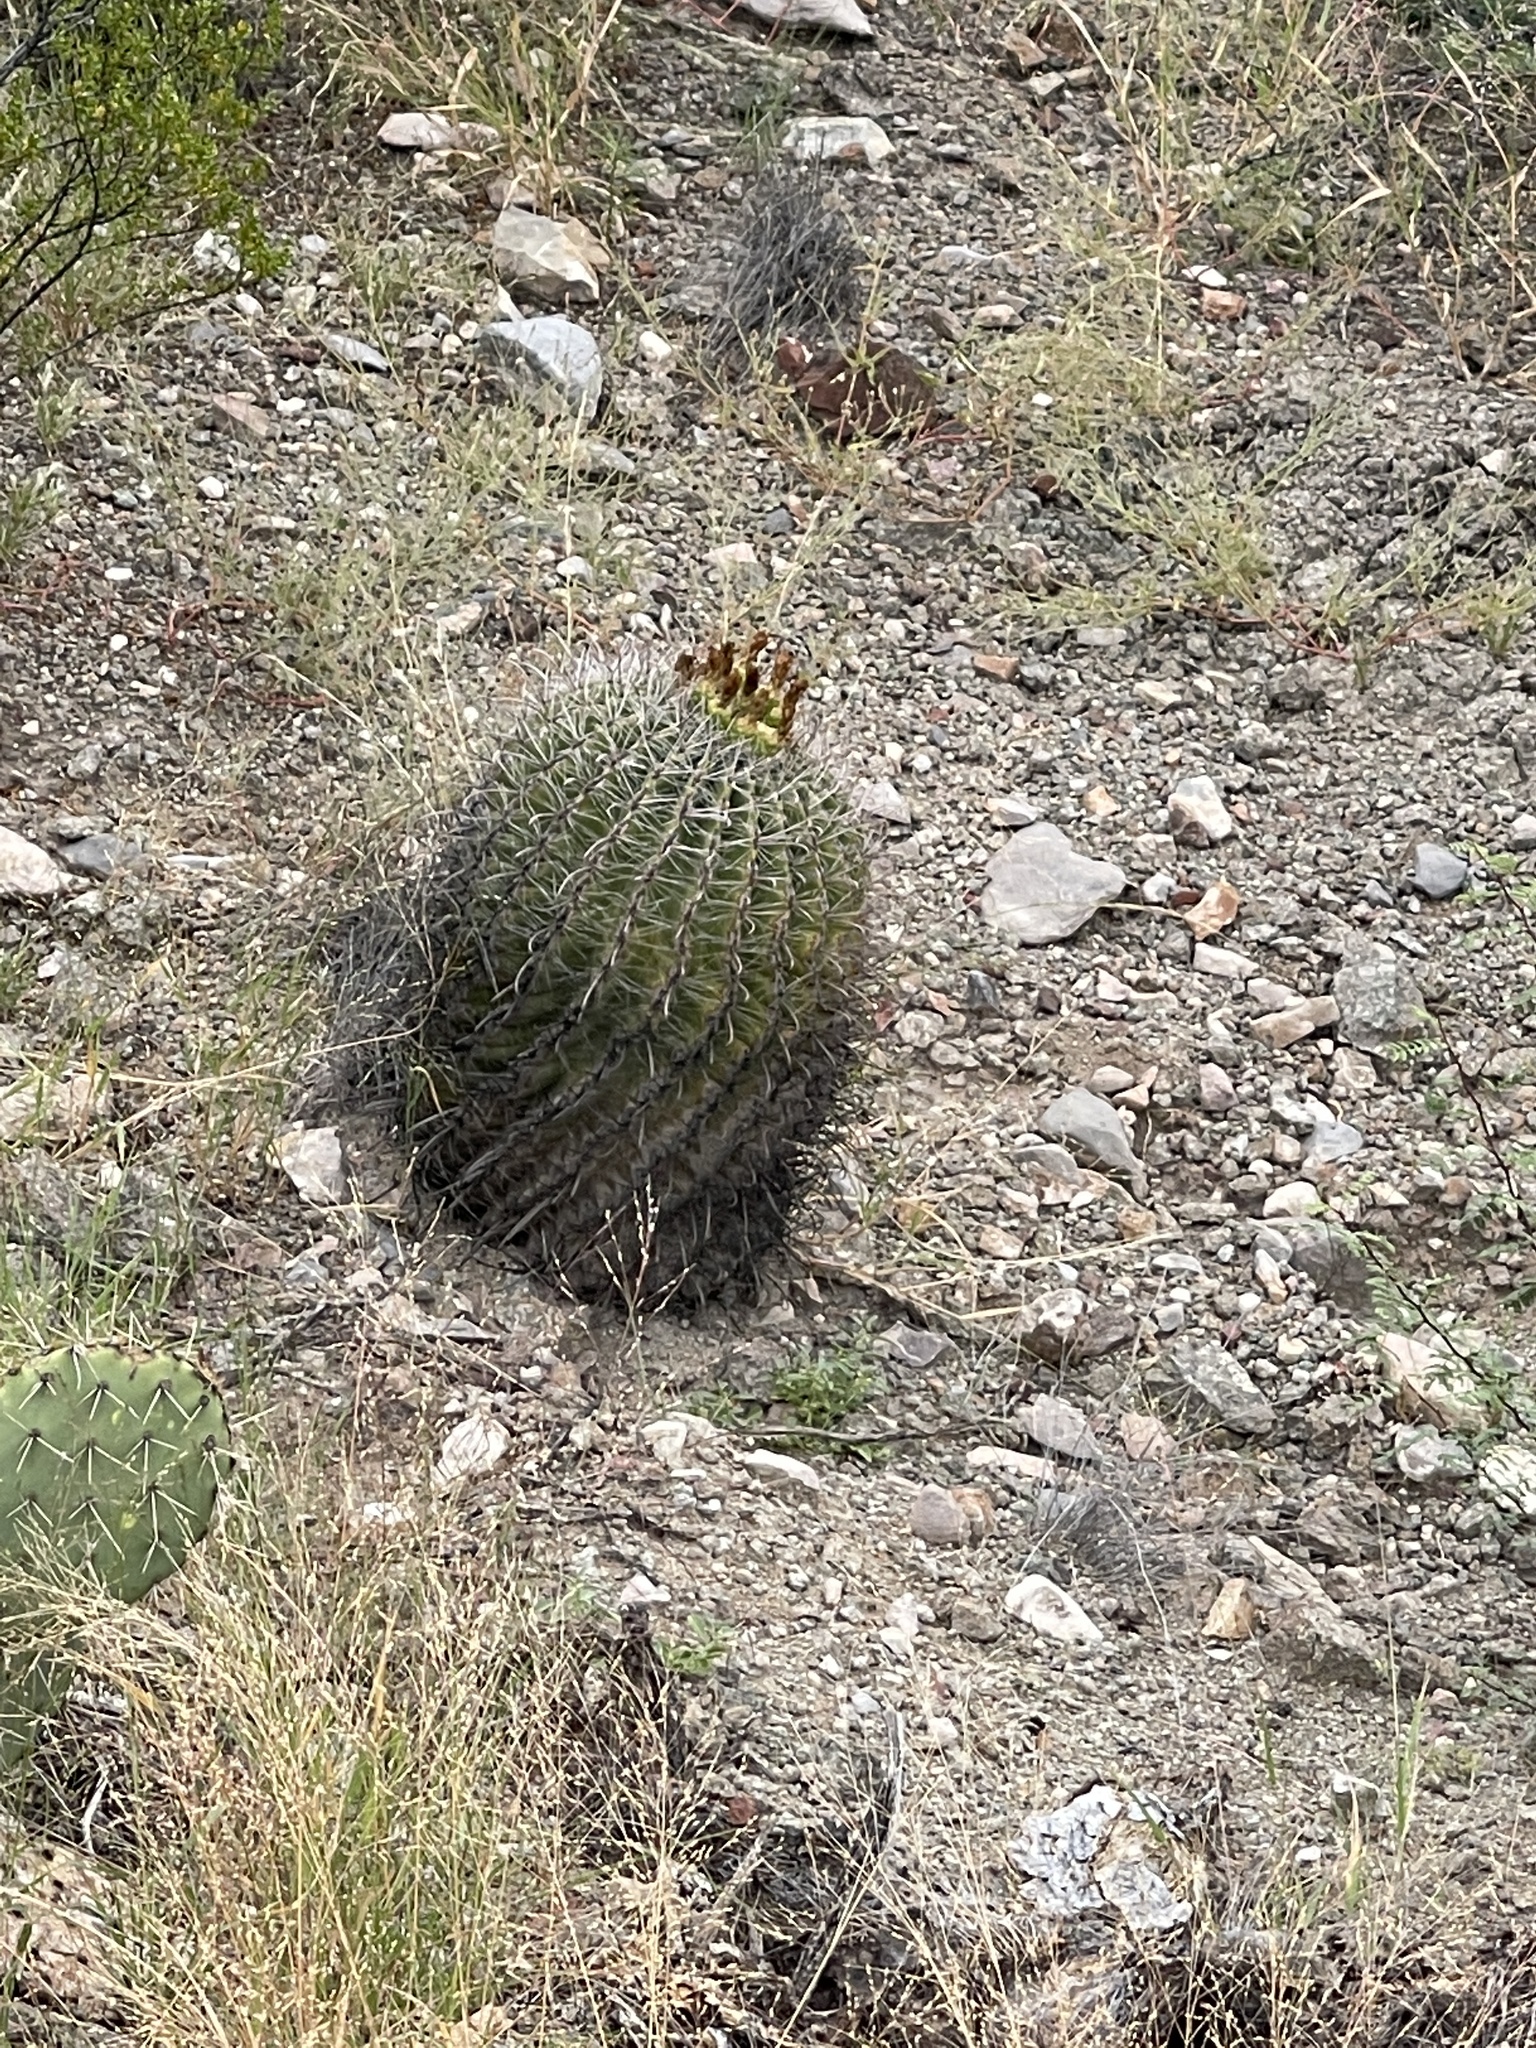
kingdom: Plantae
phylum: Tracheophyta
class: Magnoliopsida
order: Caryophyllales
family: Cactaceae
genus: Ferocactus
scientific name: Ferocactus wislizeni
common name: Candy barrel cactus
